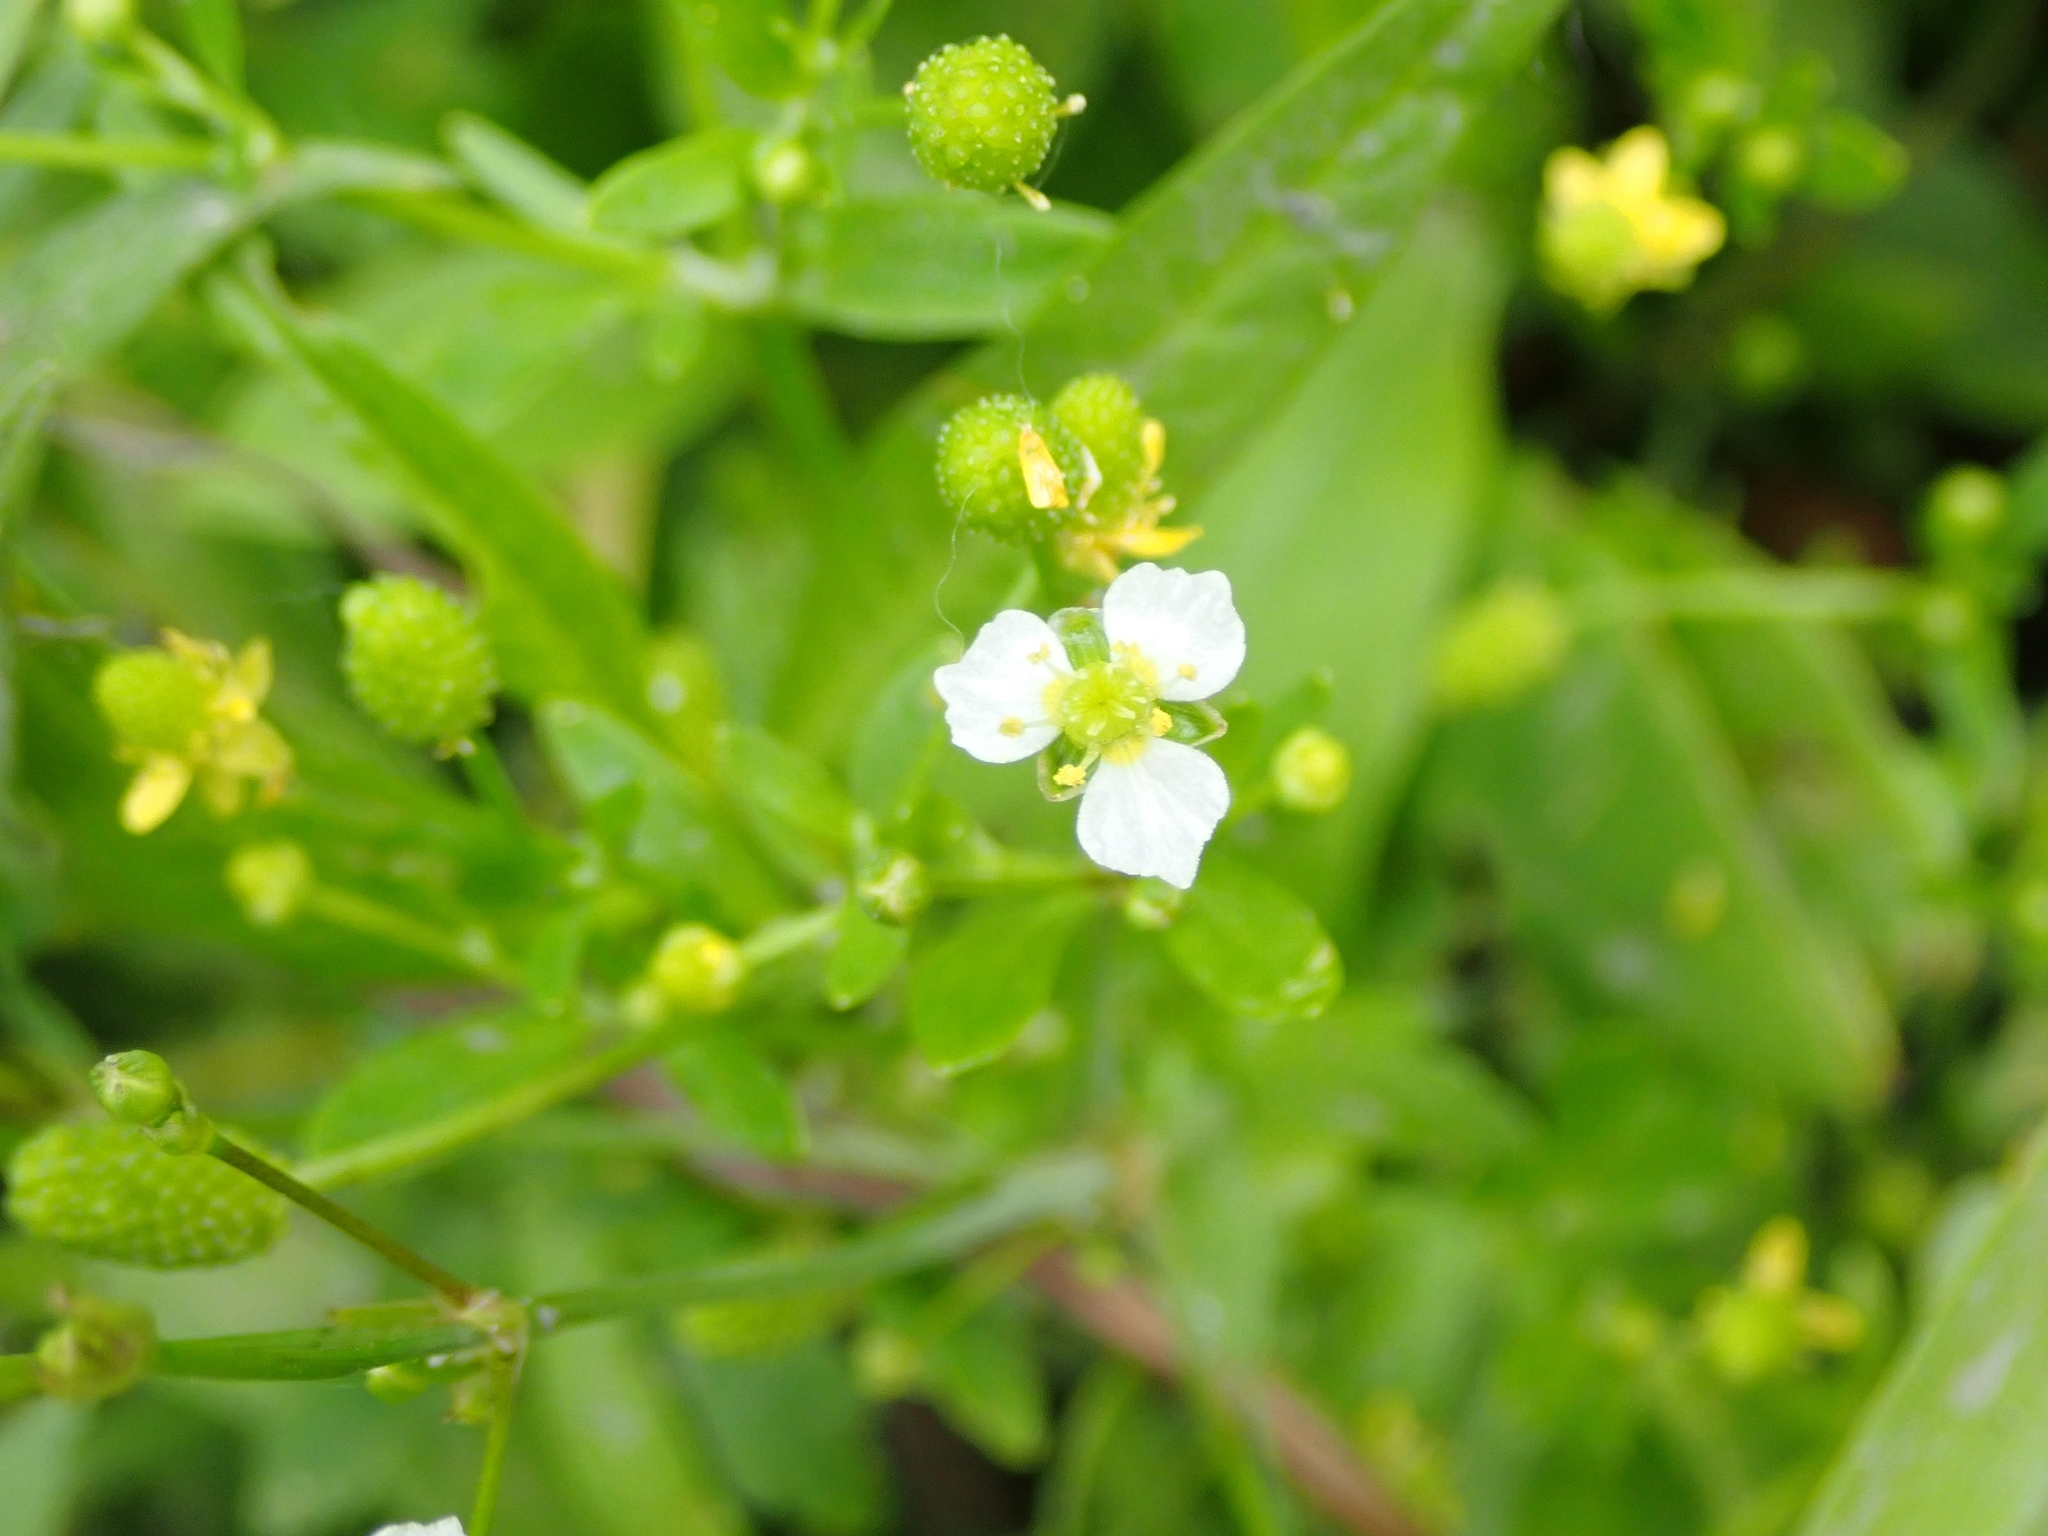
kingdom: Plantae
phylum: Tracheophyta
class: Liliopsida
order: Alismatales
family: Alismataceae
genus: Alisma
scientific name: Alisma triviale
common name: Northern water-plantain
